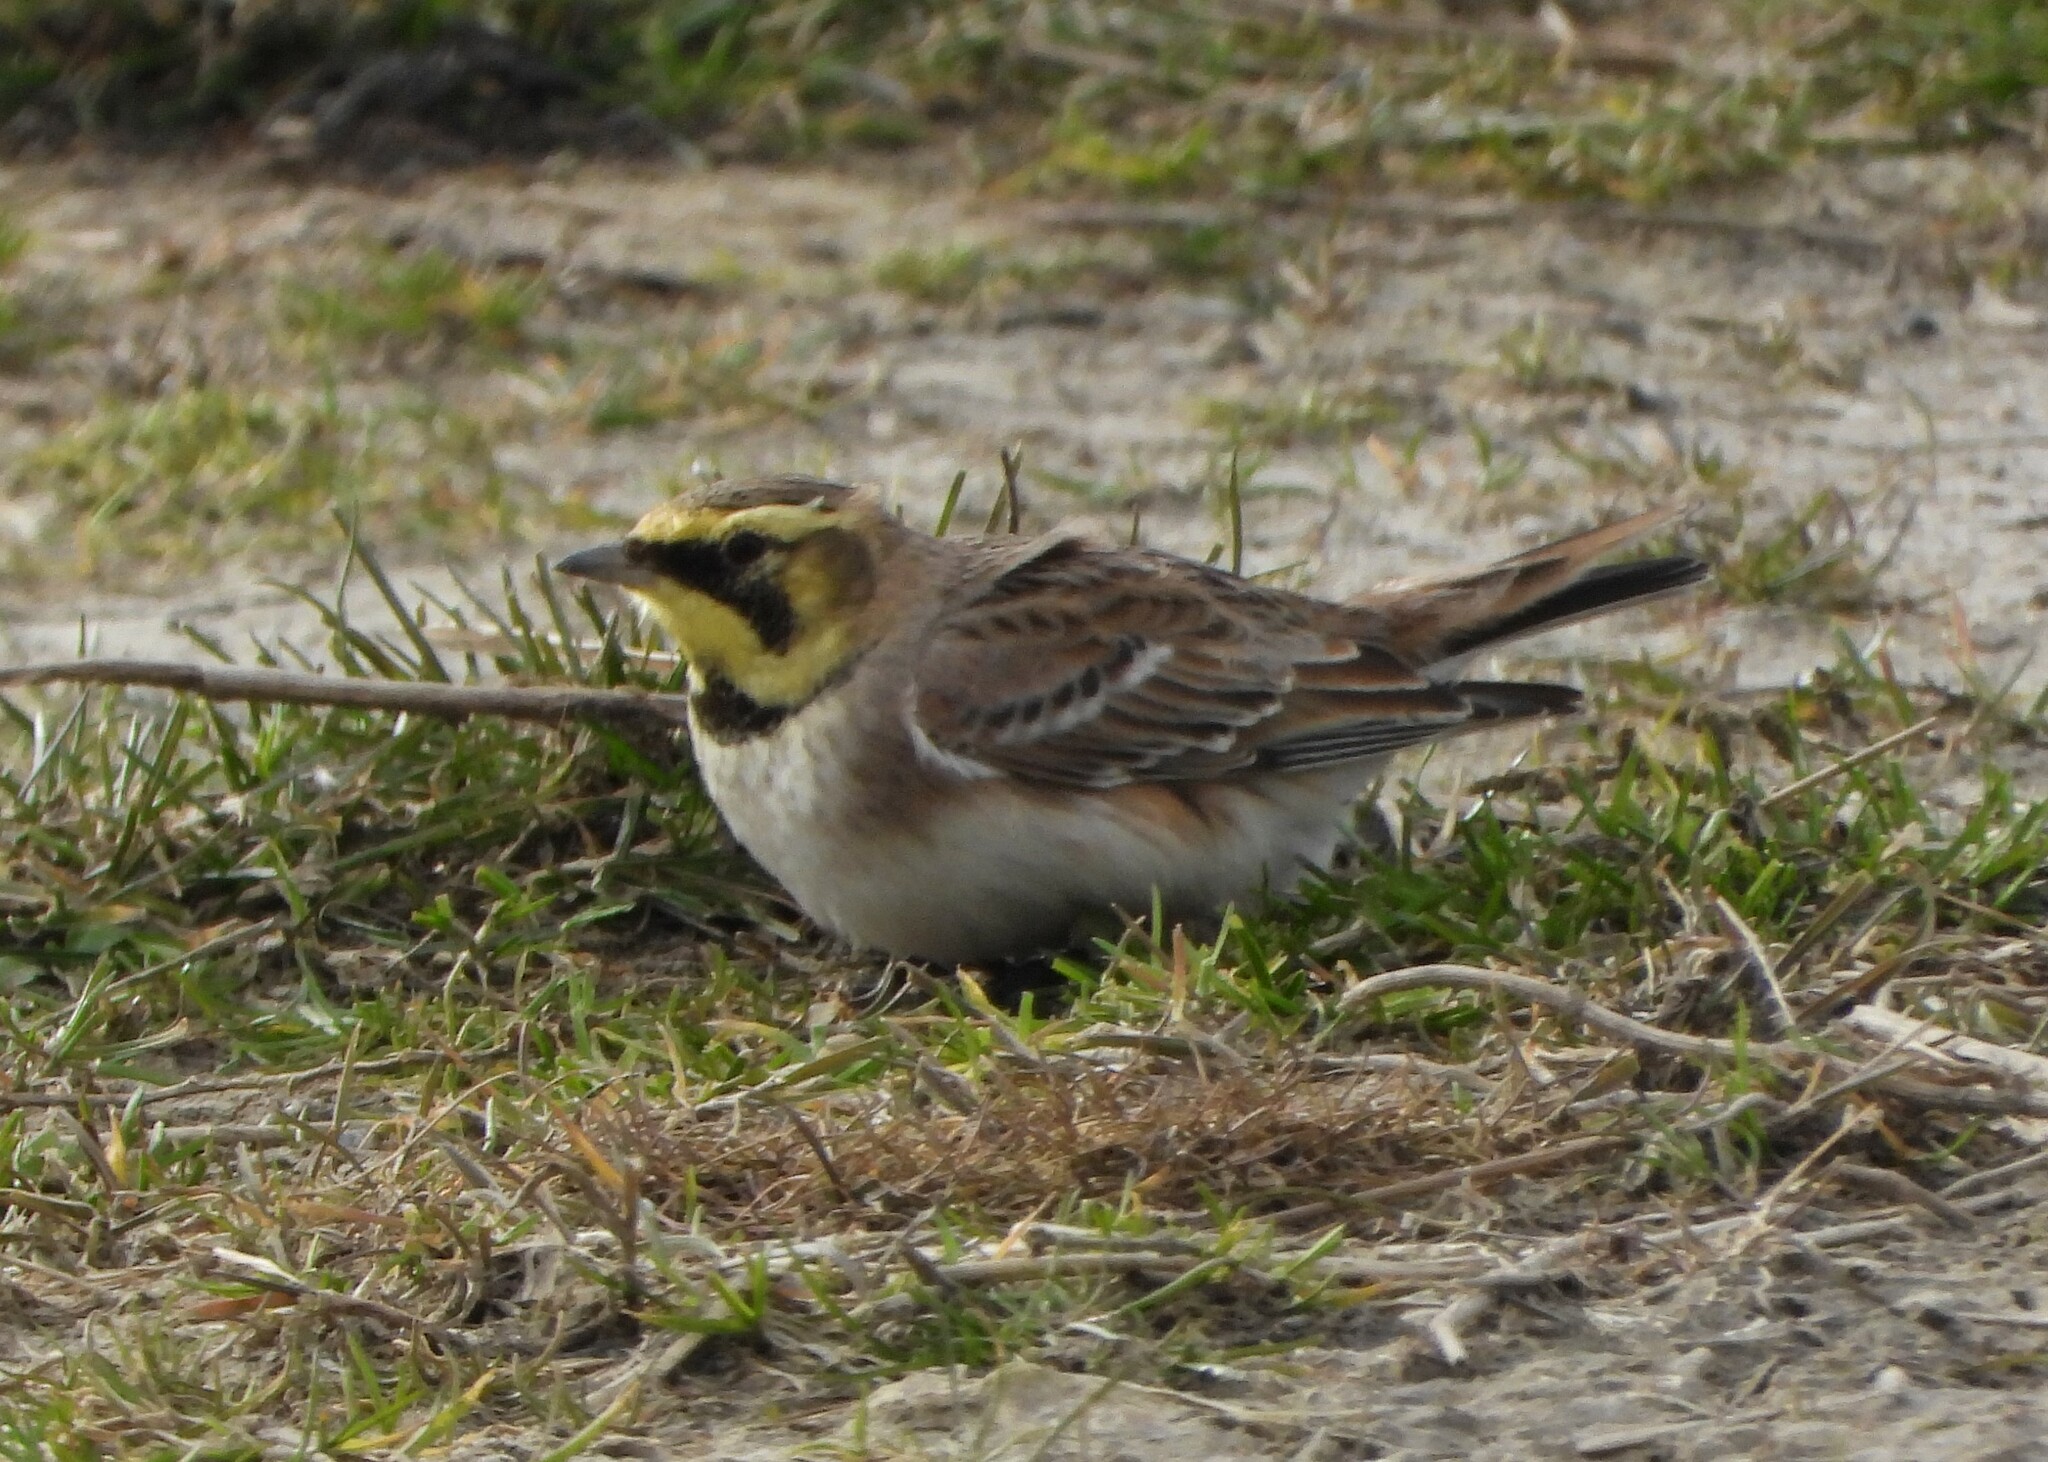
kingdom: Animalia
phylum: Chordata
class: Aves
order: Passeriformes
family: Alaudidae
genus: Eremophila
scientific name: Eremophila alpestris
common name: Horned lark
